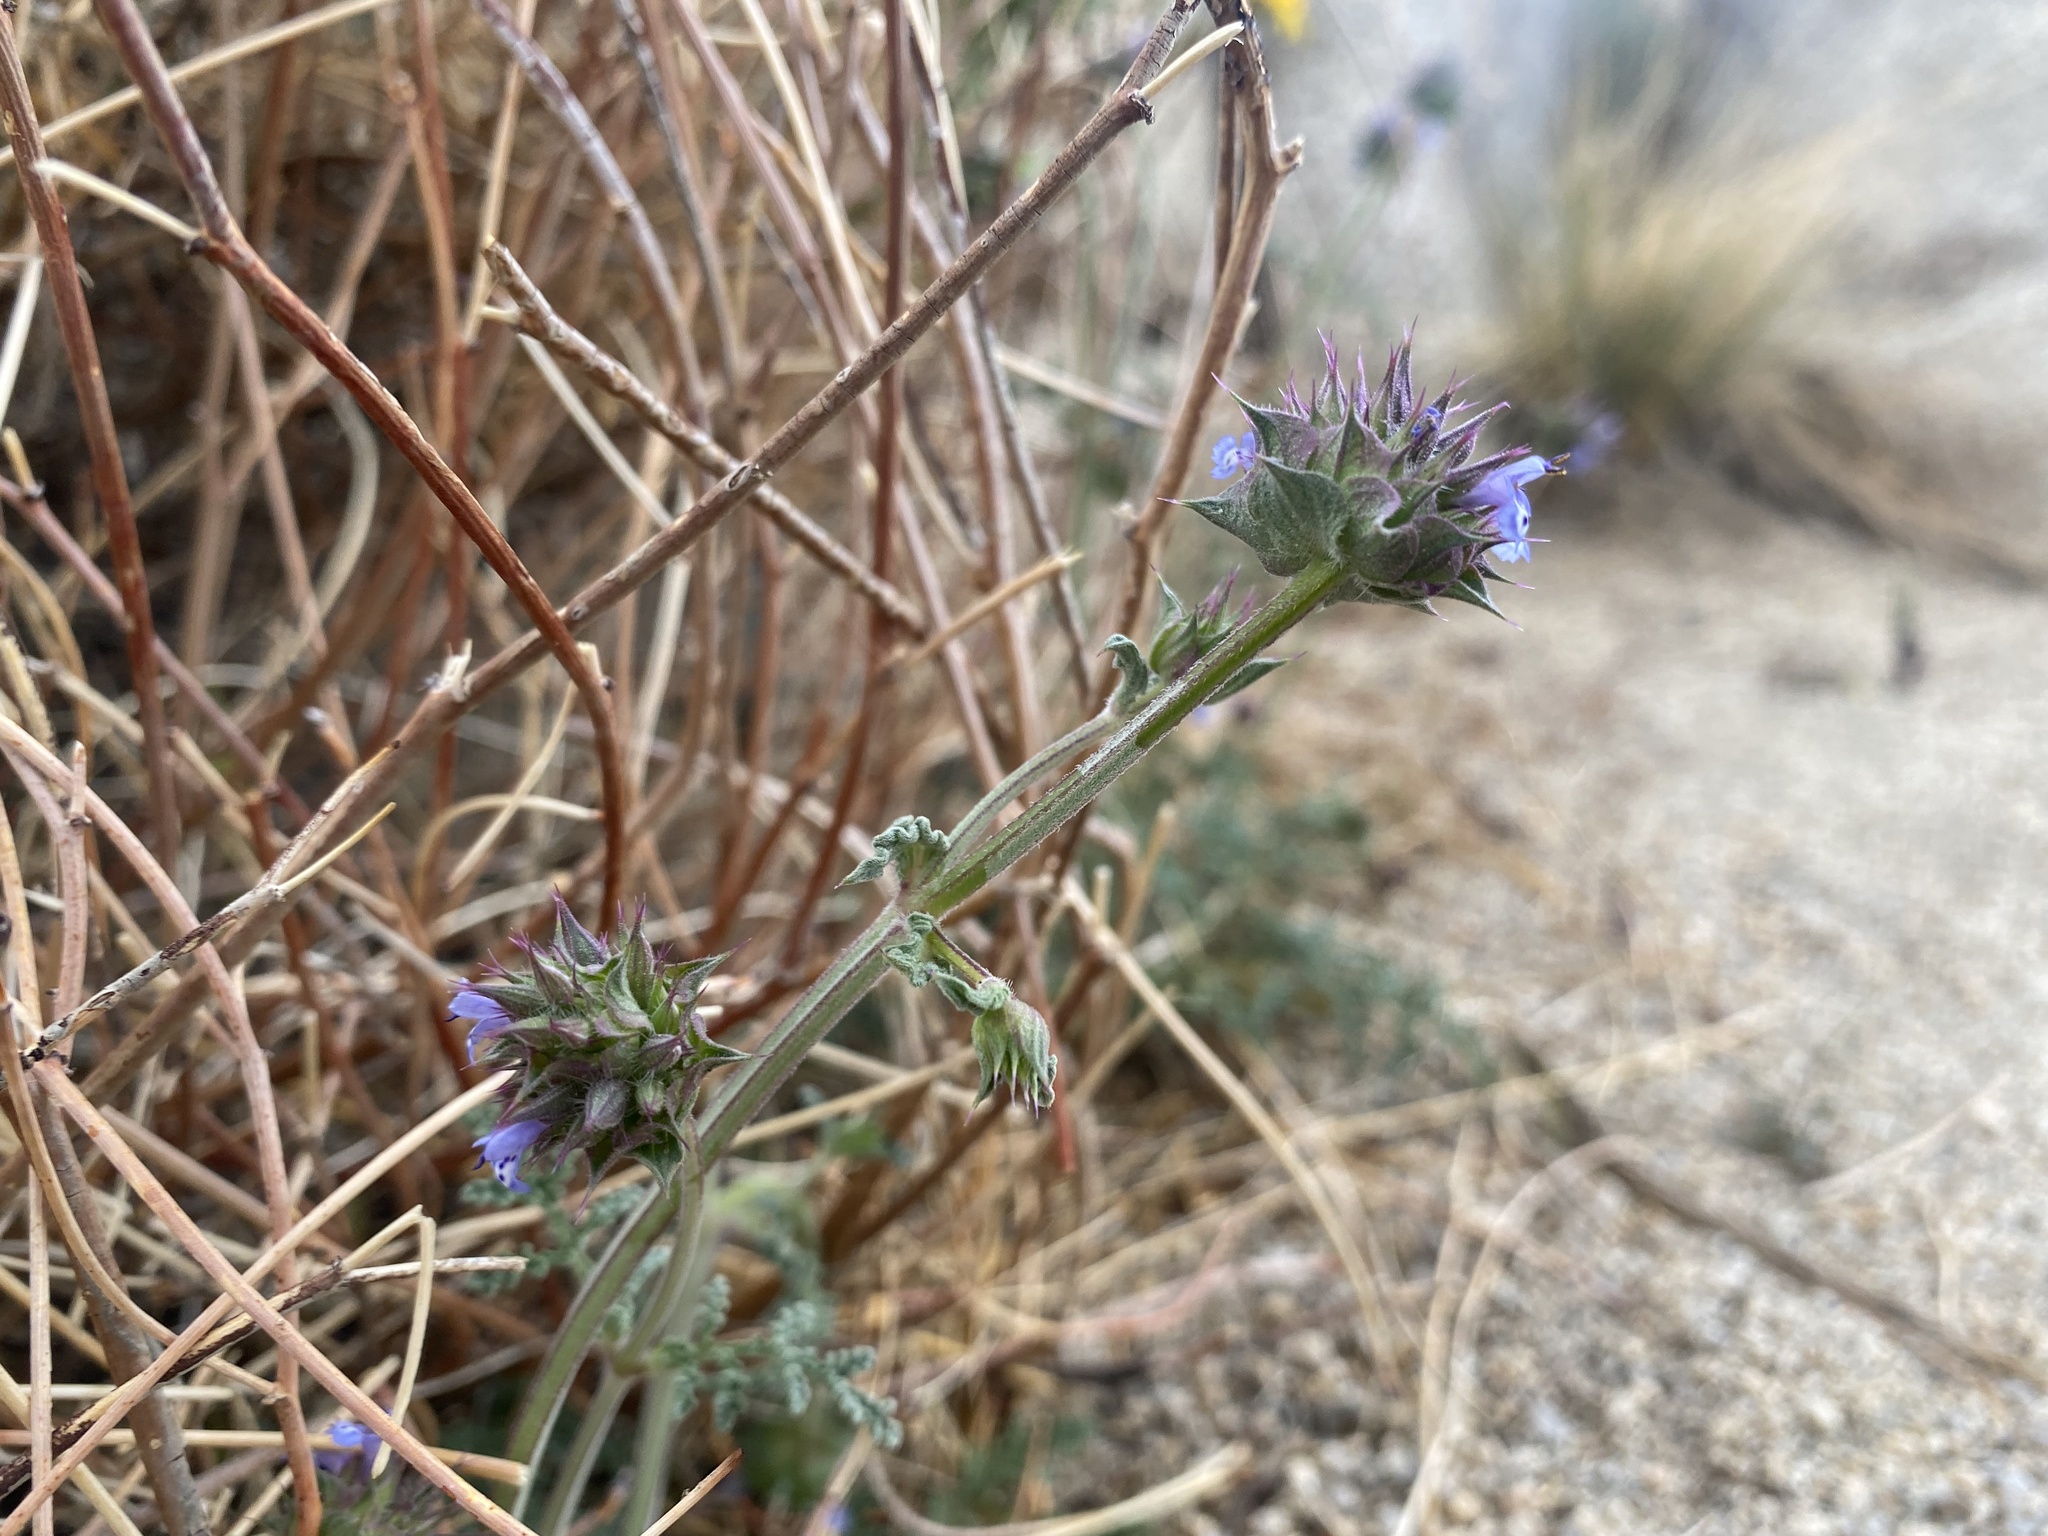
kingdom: Plantae
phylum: Tracheophyta
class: Magnoliopsida
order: Lamiales
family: Lamiaceae
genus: Salvia
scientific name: Salvia columbariae
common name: Chia
